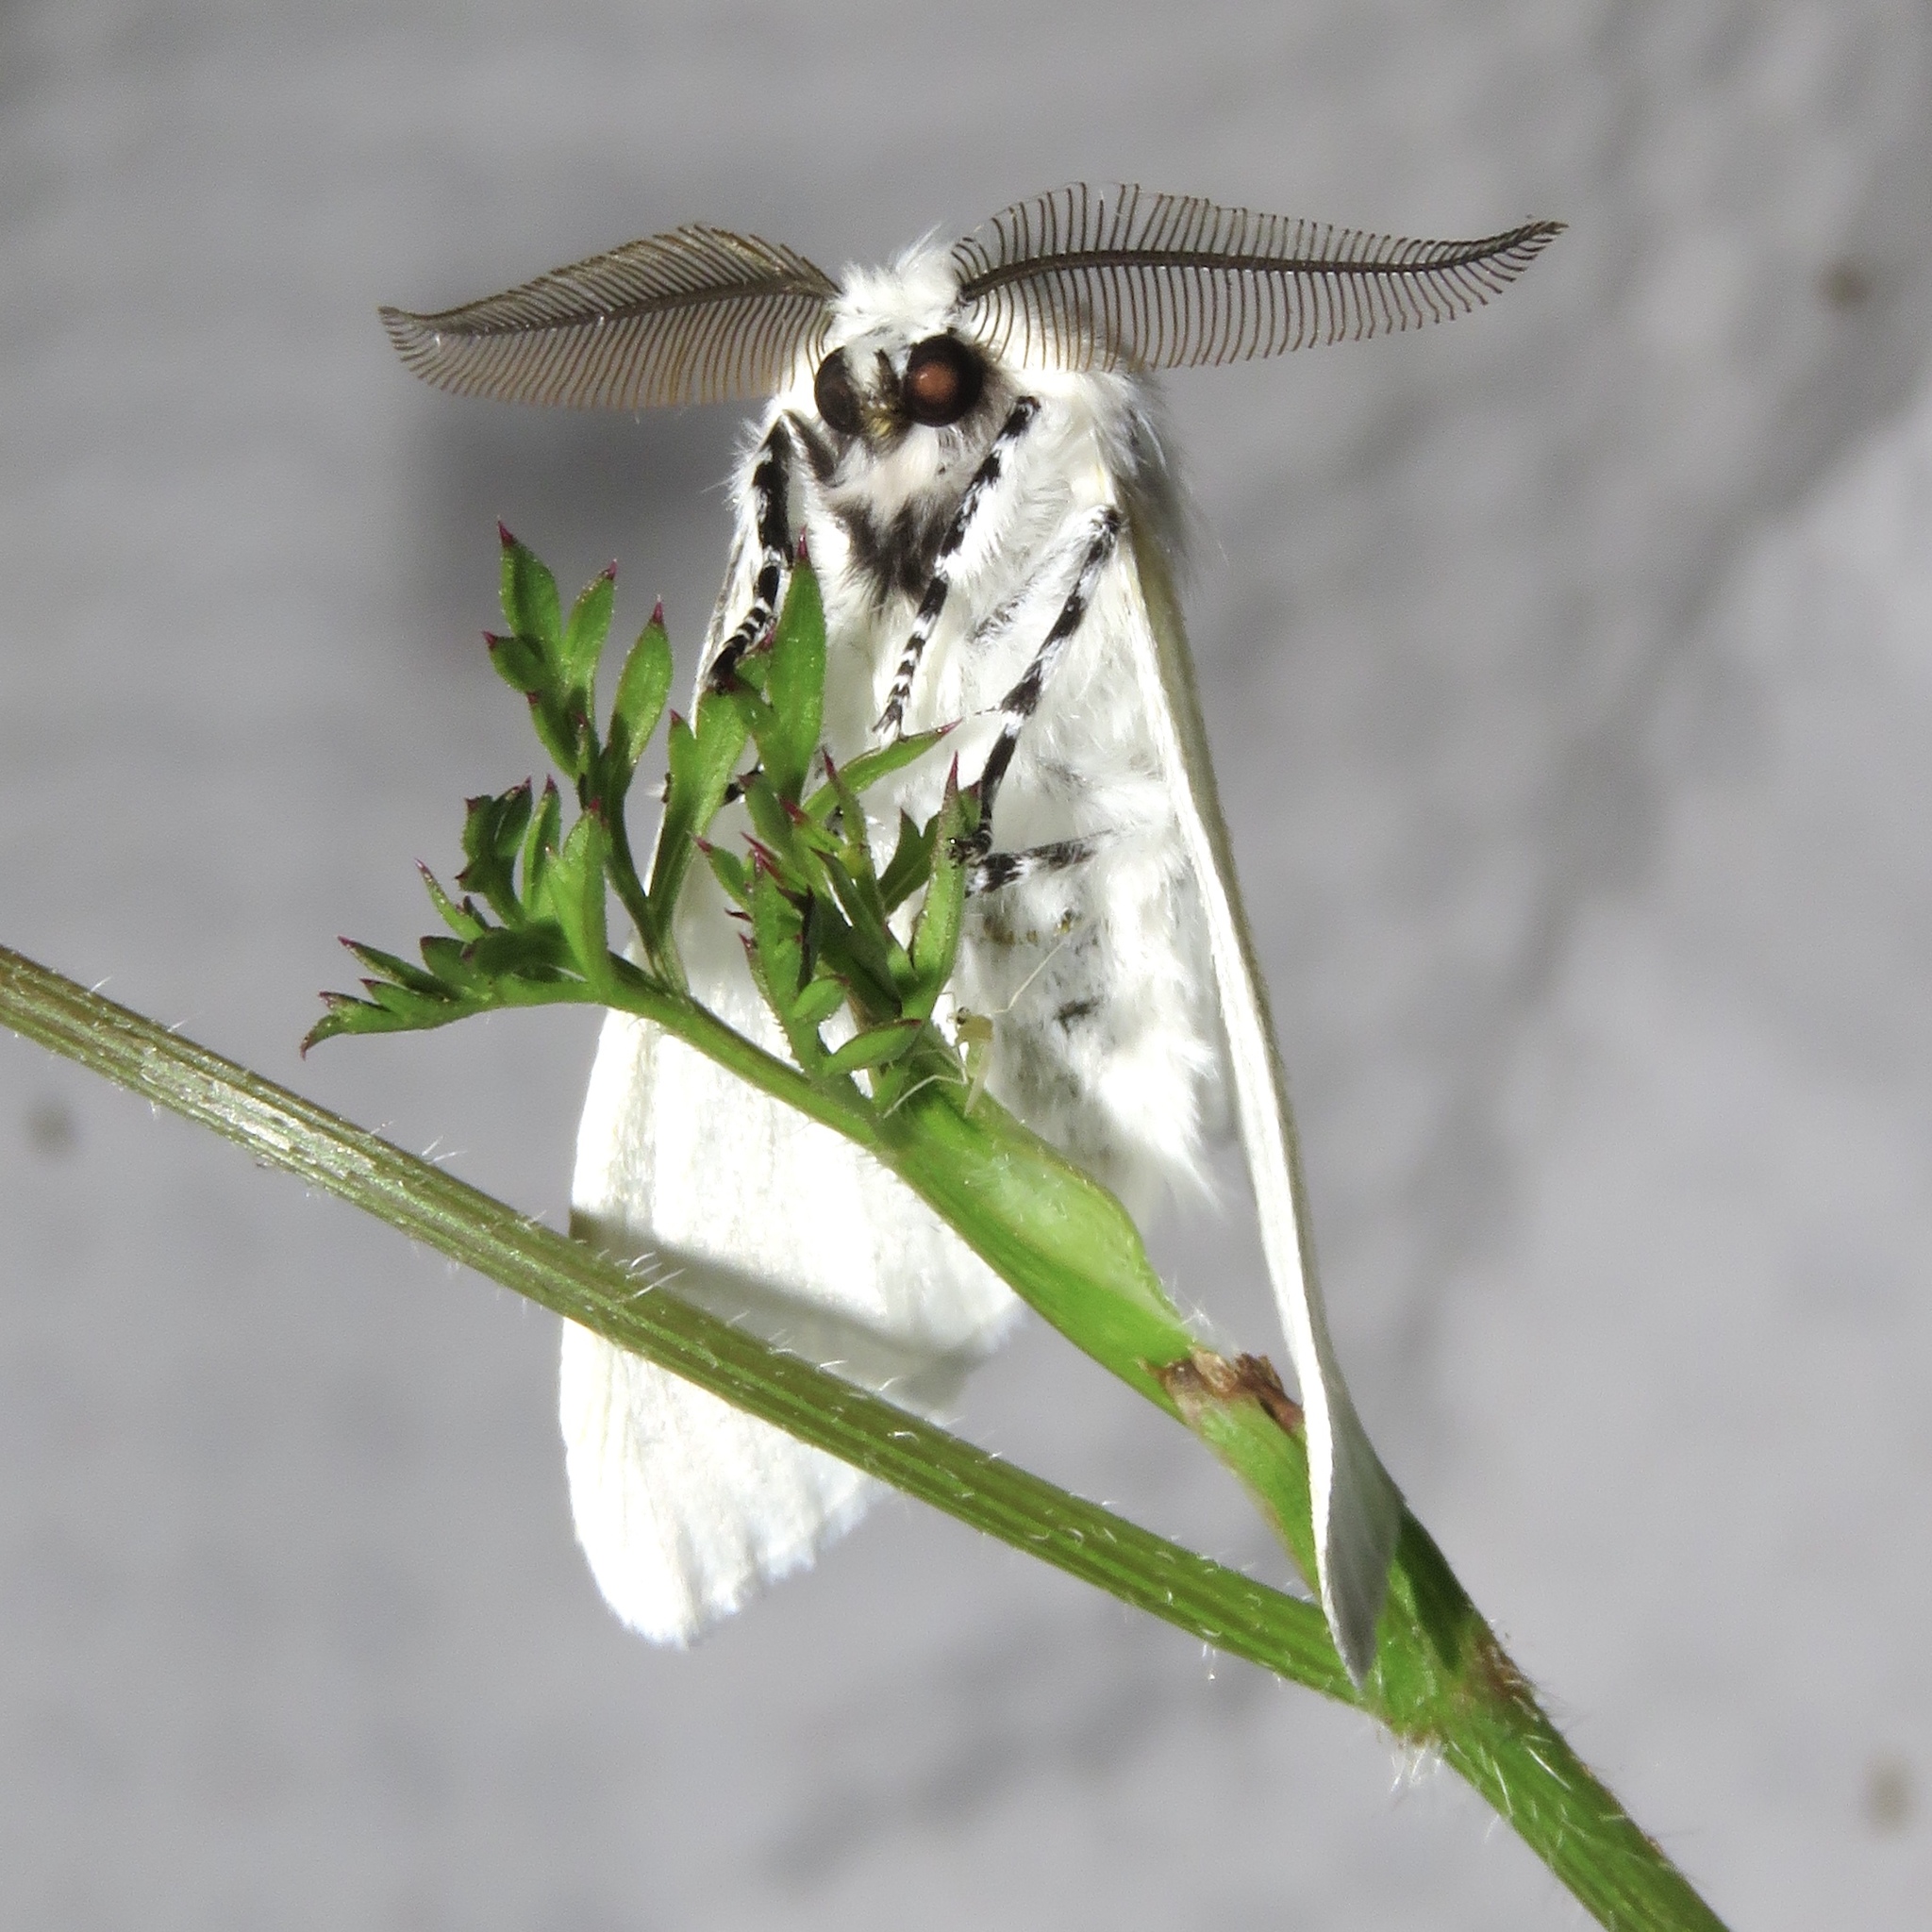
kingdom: Animalia
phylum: Arthropoda
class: Insecta
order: Lepidoptera
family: Erebidae
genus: Leucoma
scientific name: Leucoma salicis
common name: White satin moth
